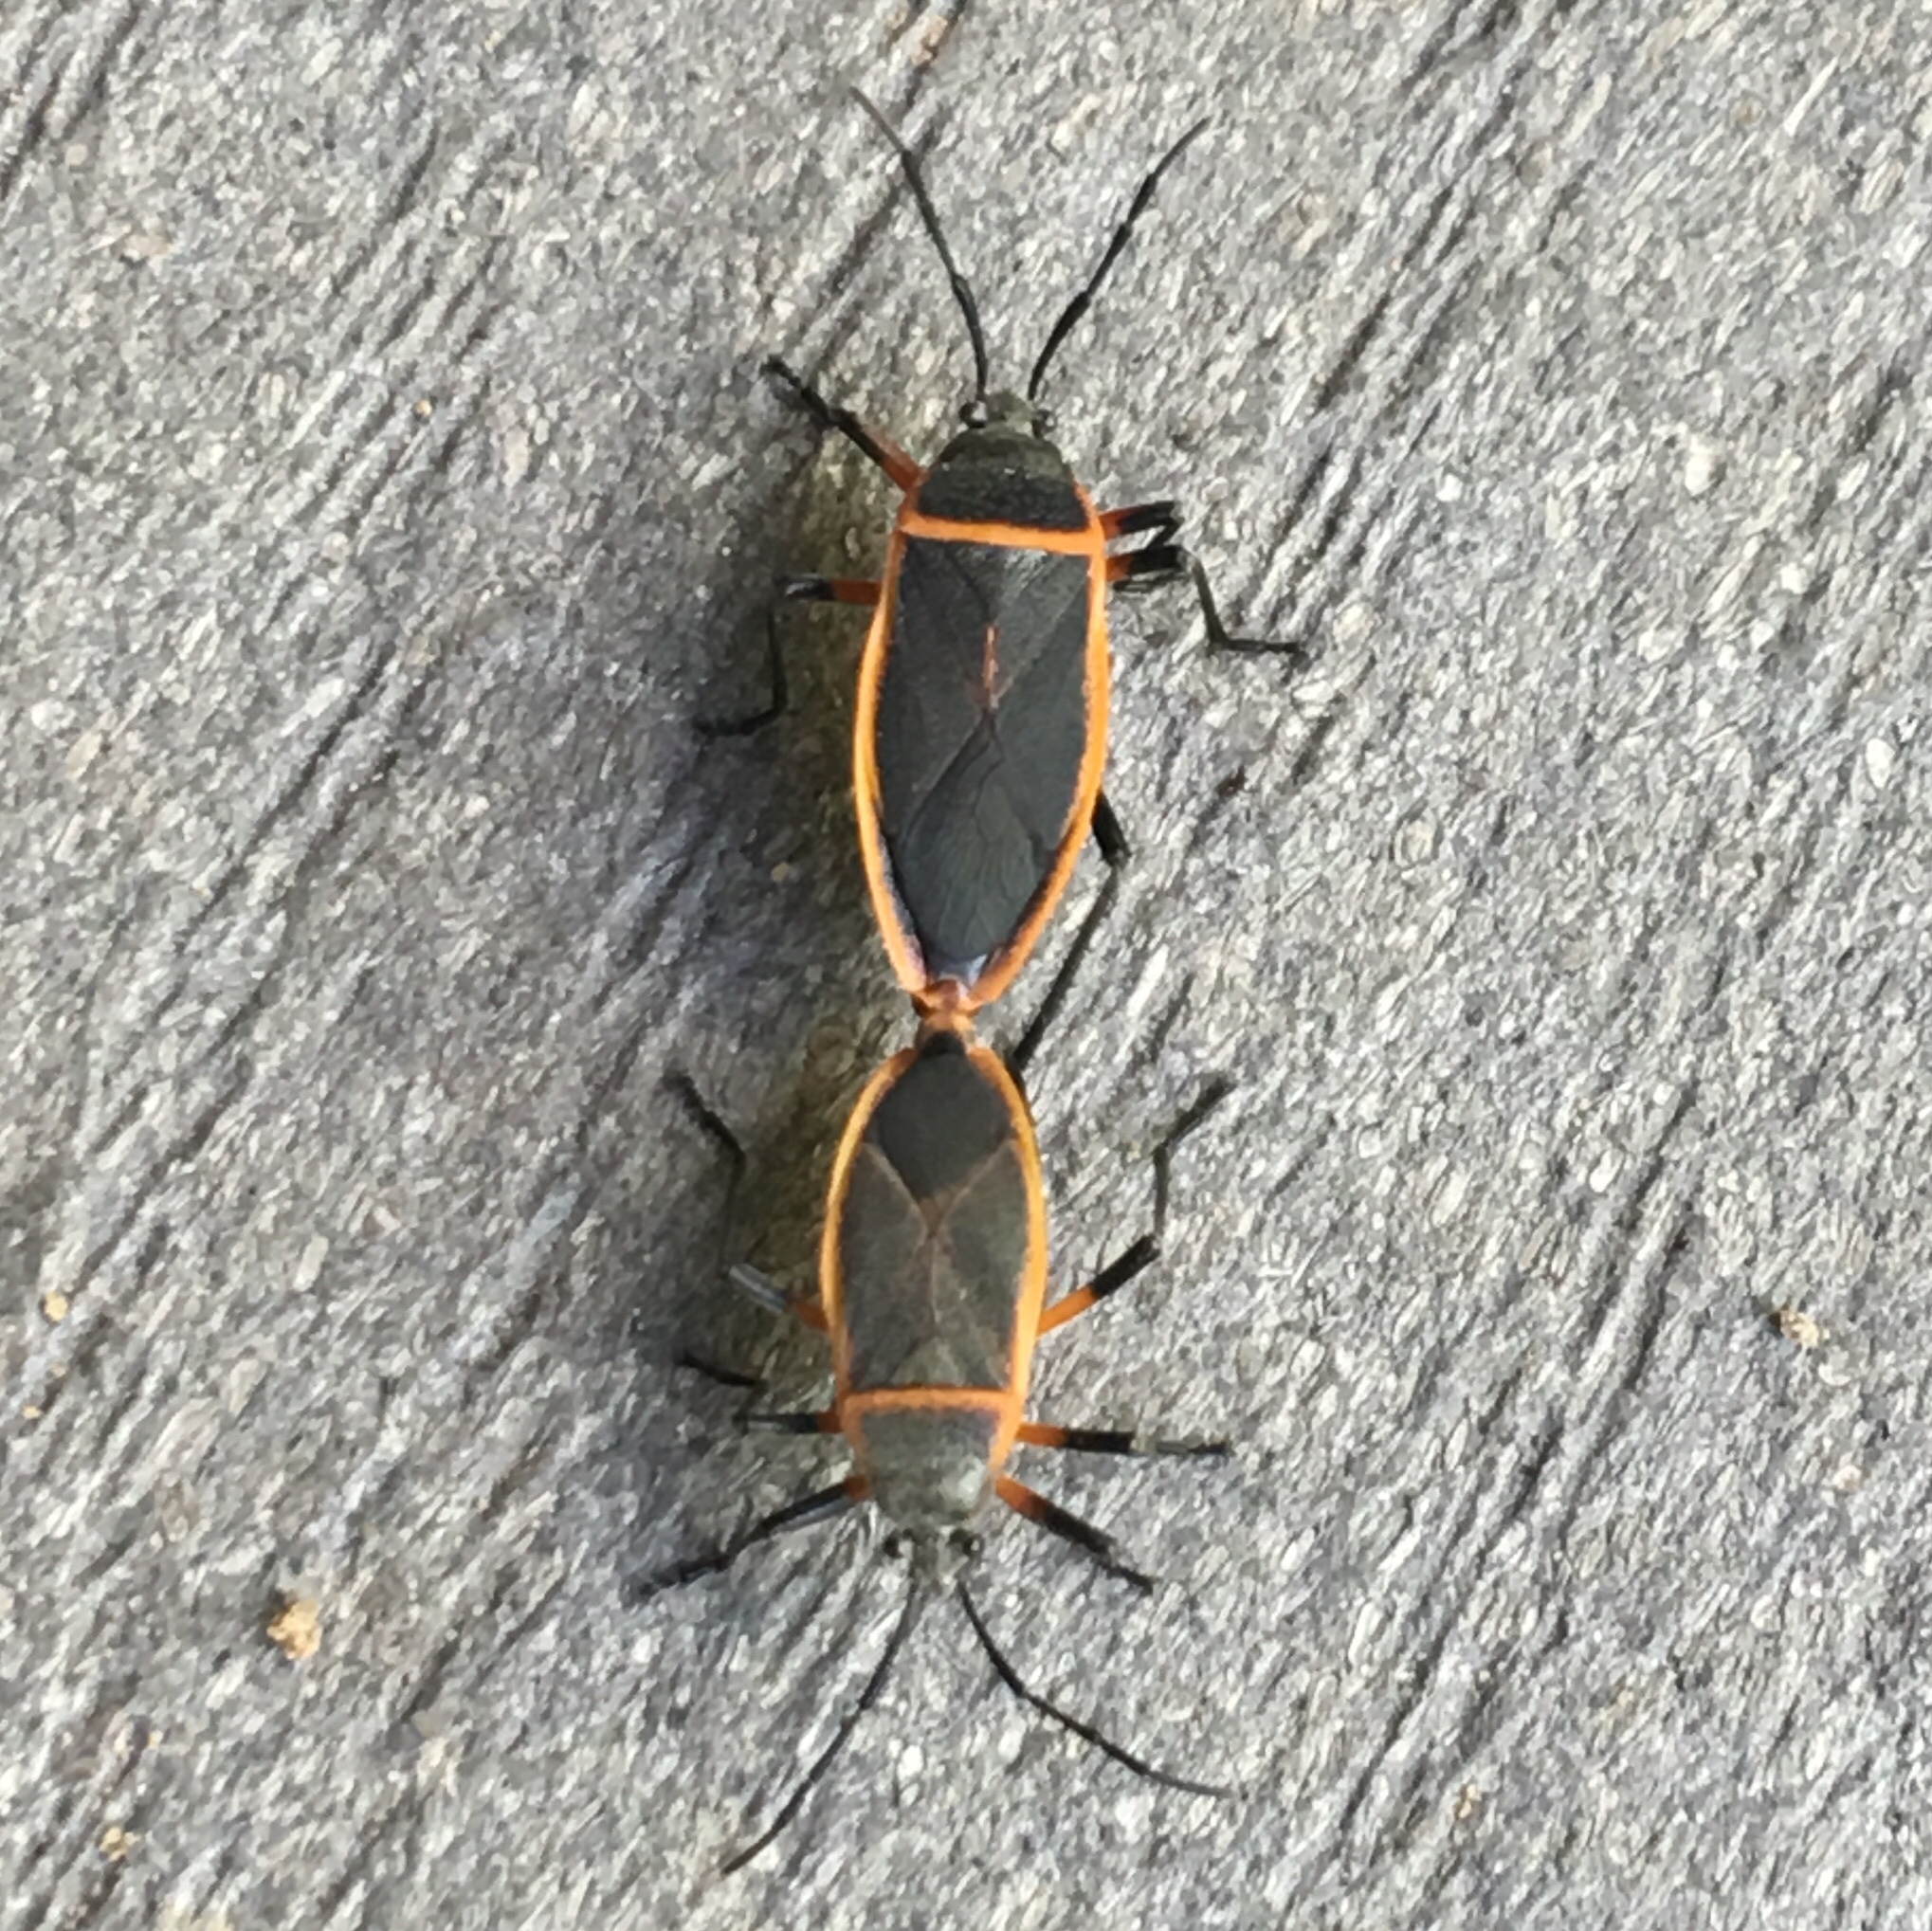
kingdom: Animalia
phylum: Arthropoda
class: Insecta
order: Hemiptera
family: Largidae
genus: Largus
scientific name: Largus succinctus
